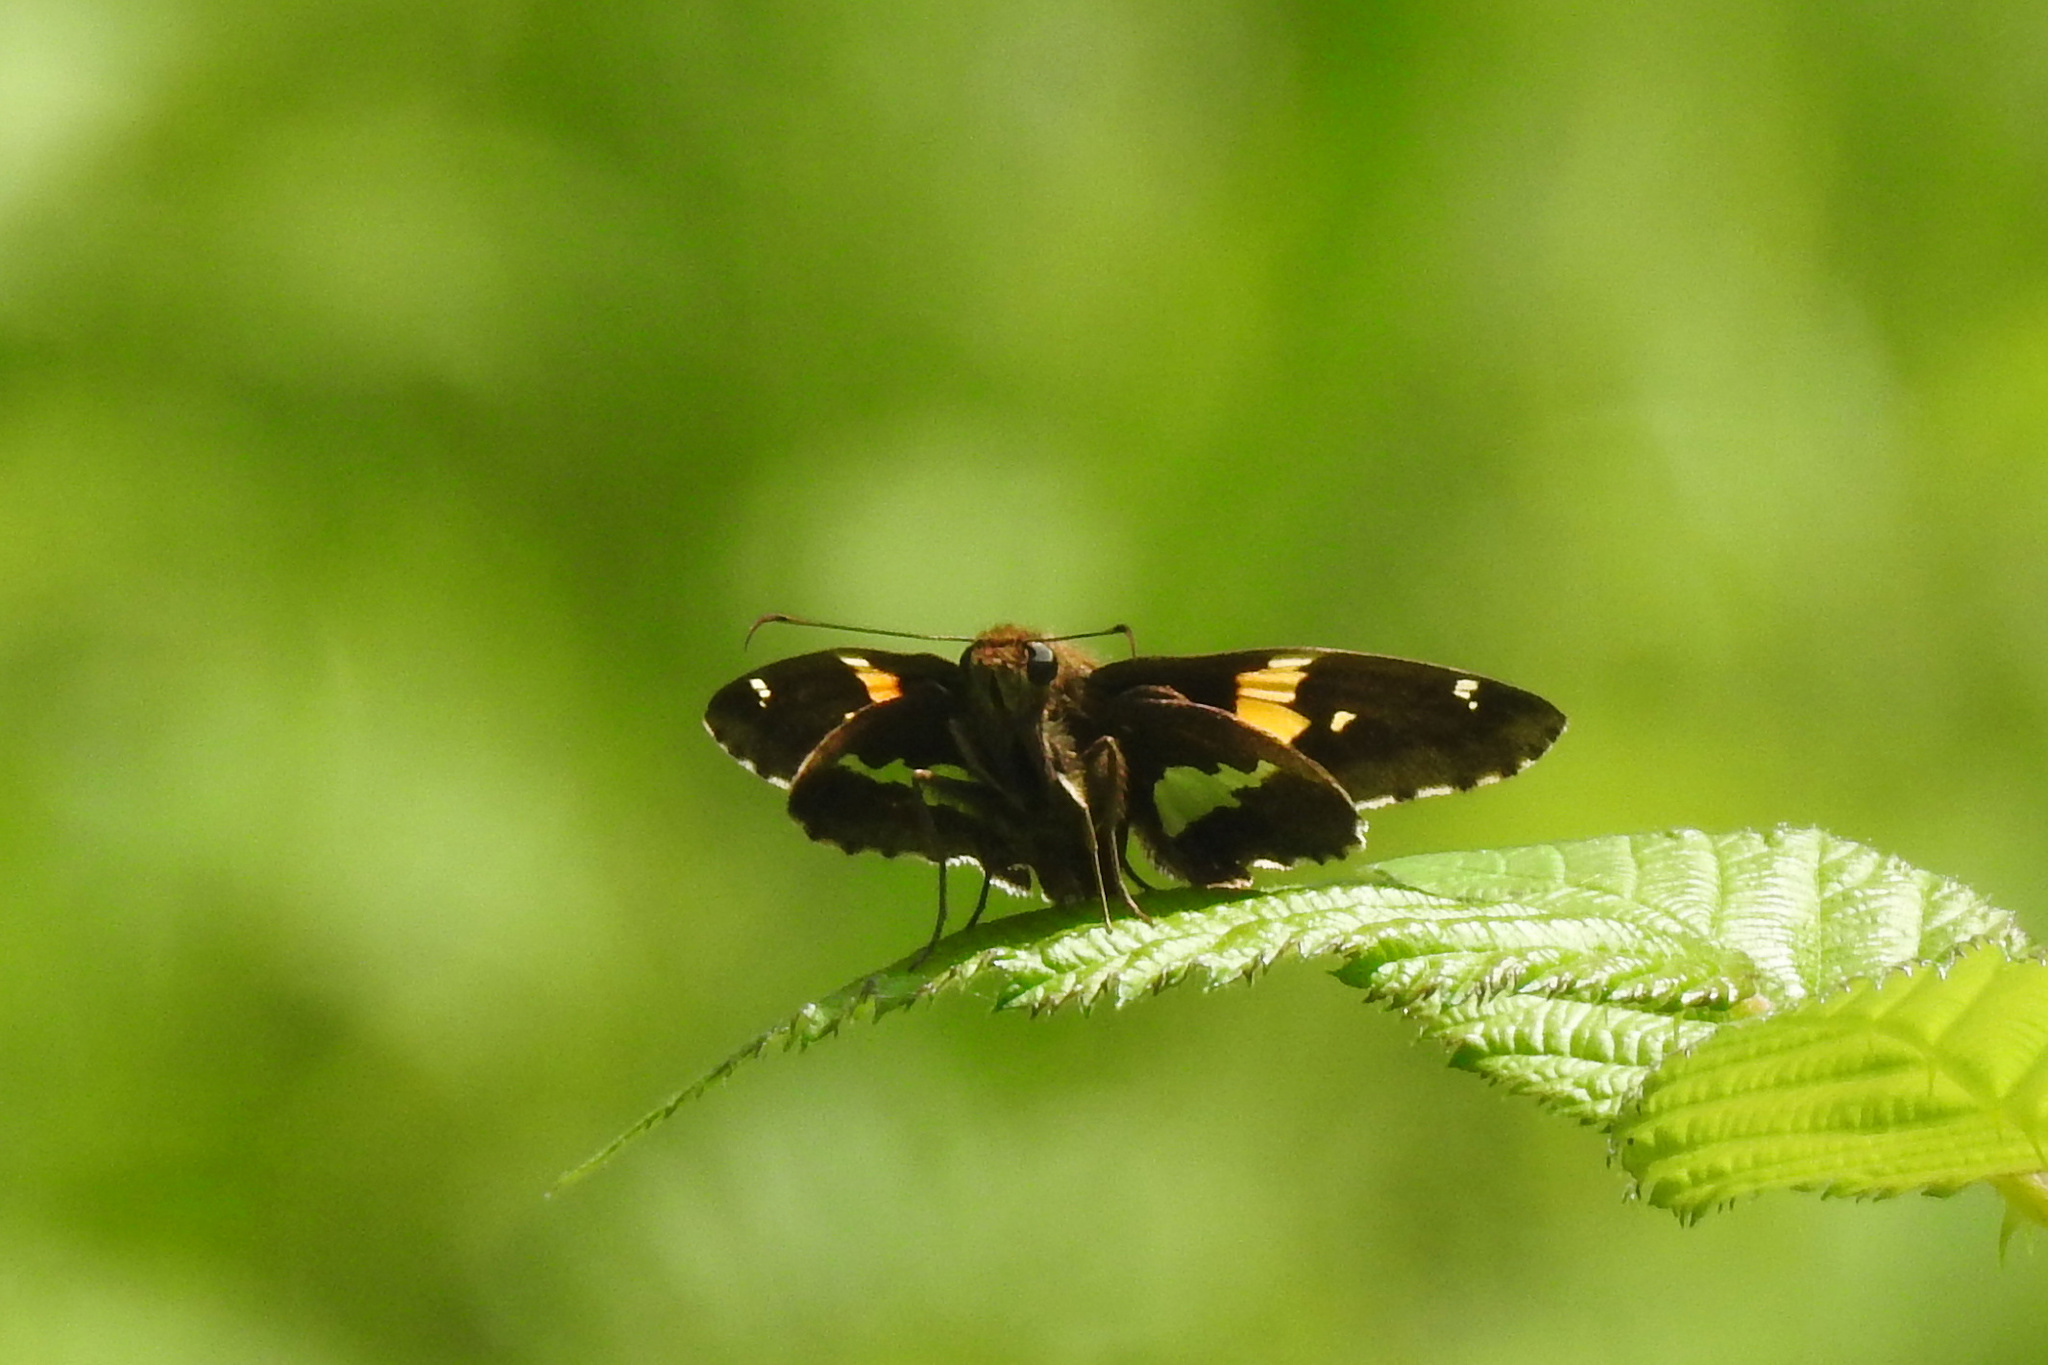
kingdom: Animalia
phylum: Arthropoda
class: Insecta
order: Lepidoptera
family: Hesperiidae
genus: Epargyreus
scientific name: Epargyreus clarus
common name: Silver-spotted skipper
